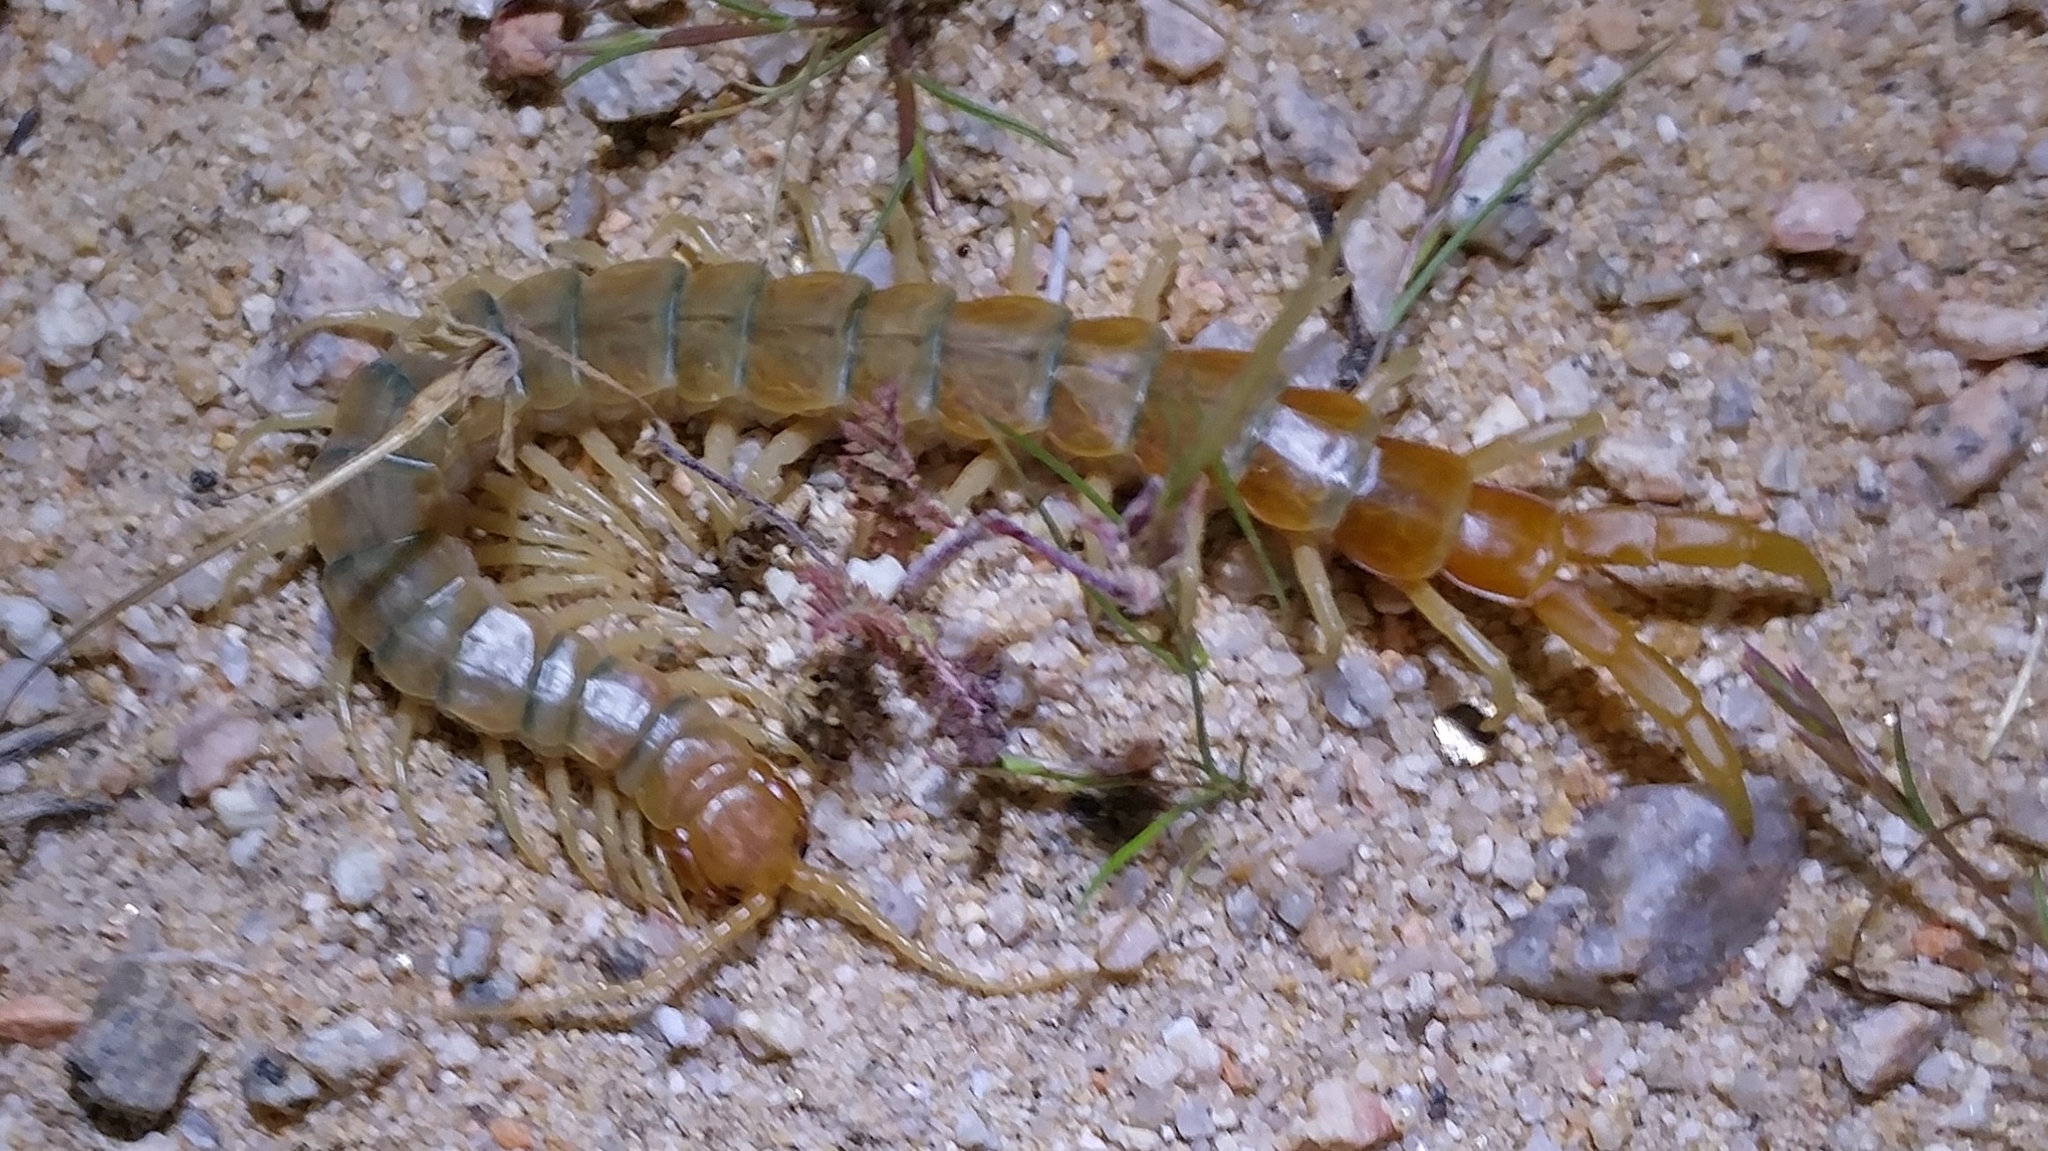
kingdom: Animalia
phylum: Arthropoda
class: Chilopoda
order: Scolopendromorpha
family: Scolopendridae
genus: Scolopendra
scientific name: Scolopendra polymorpha
